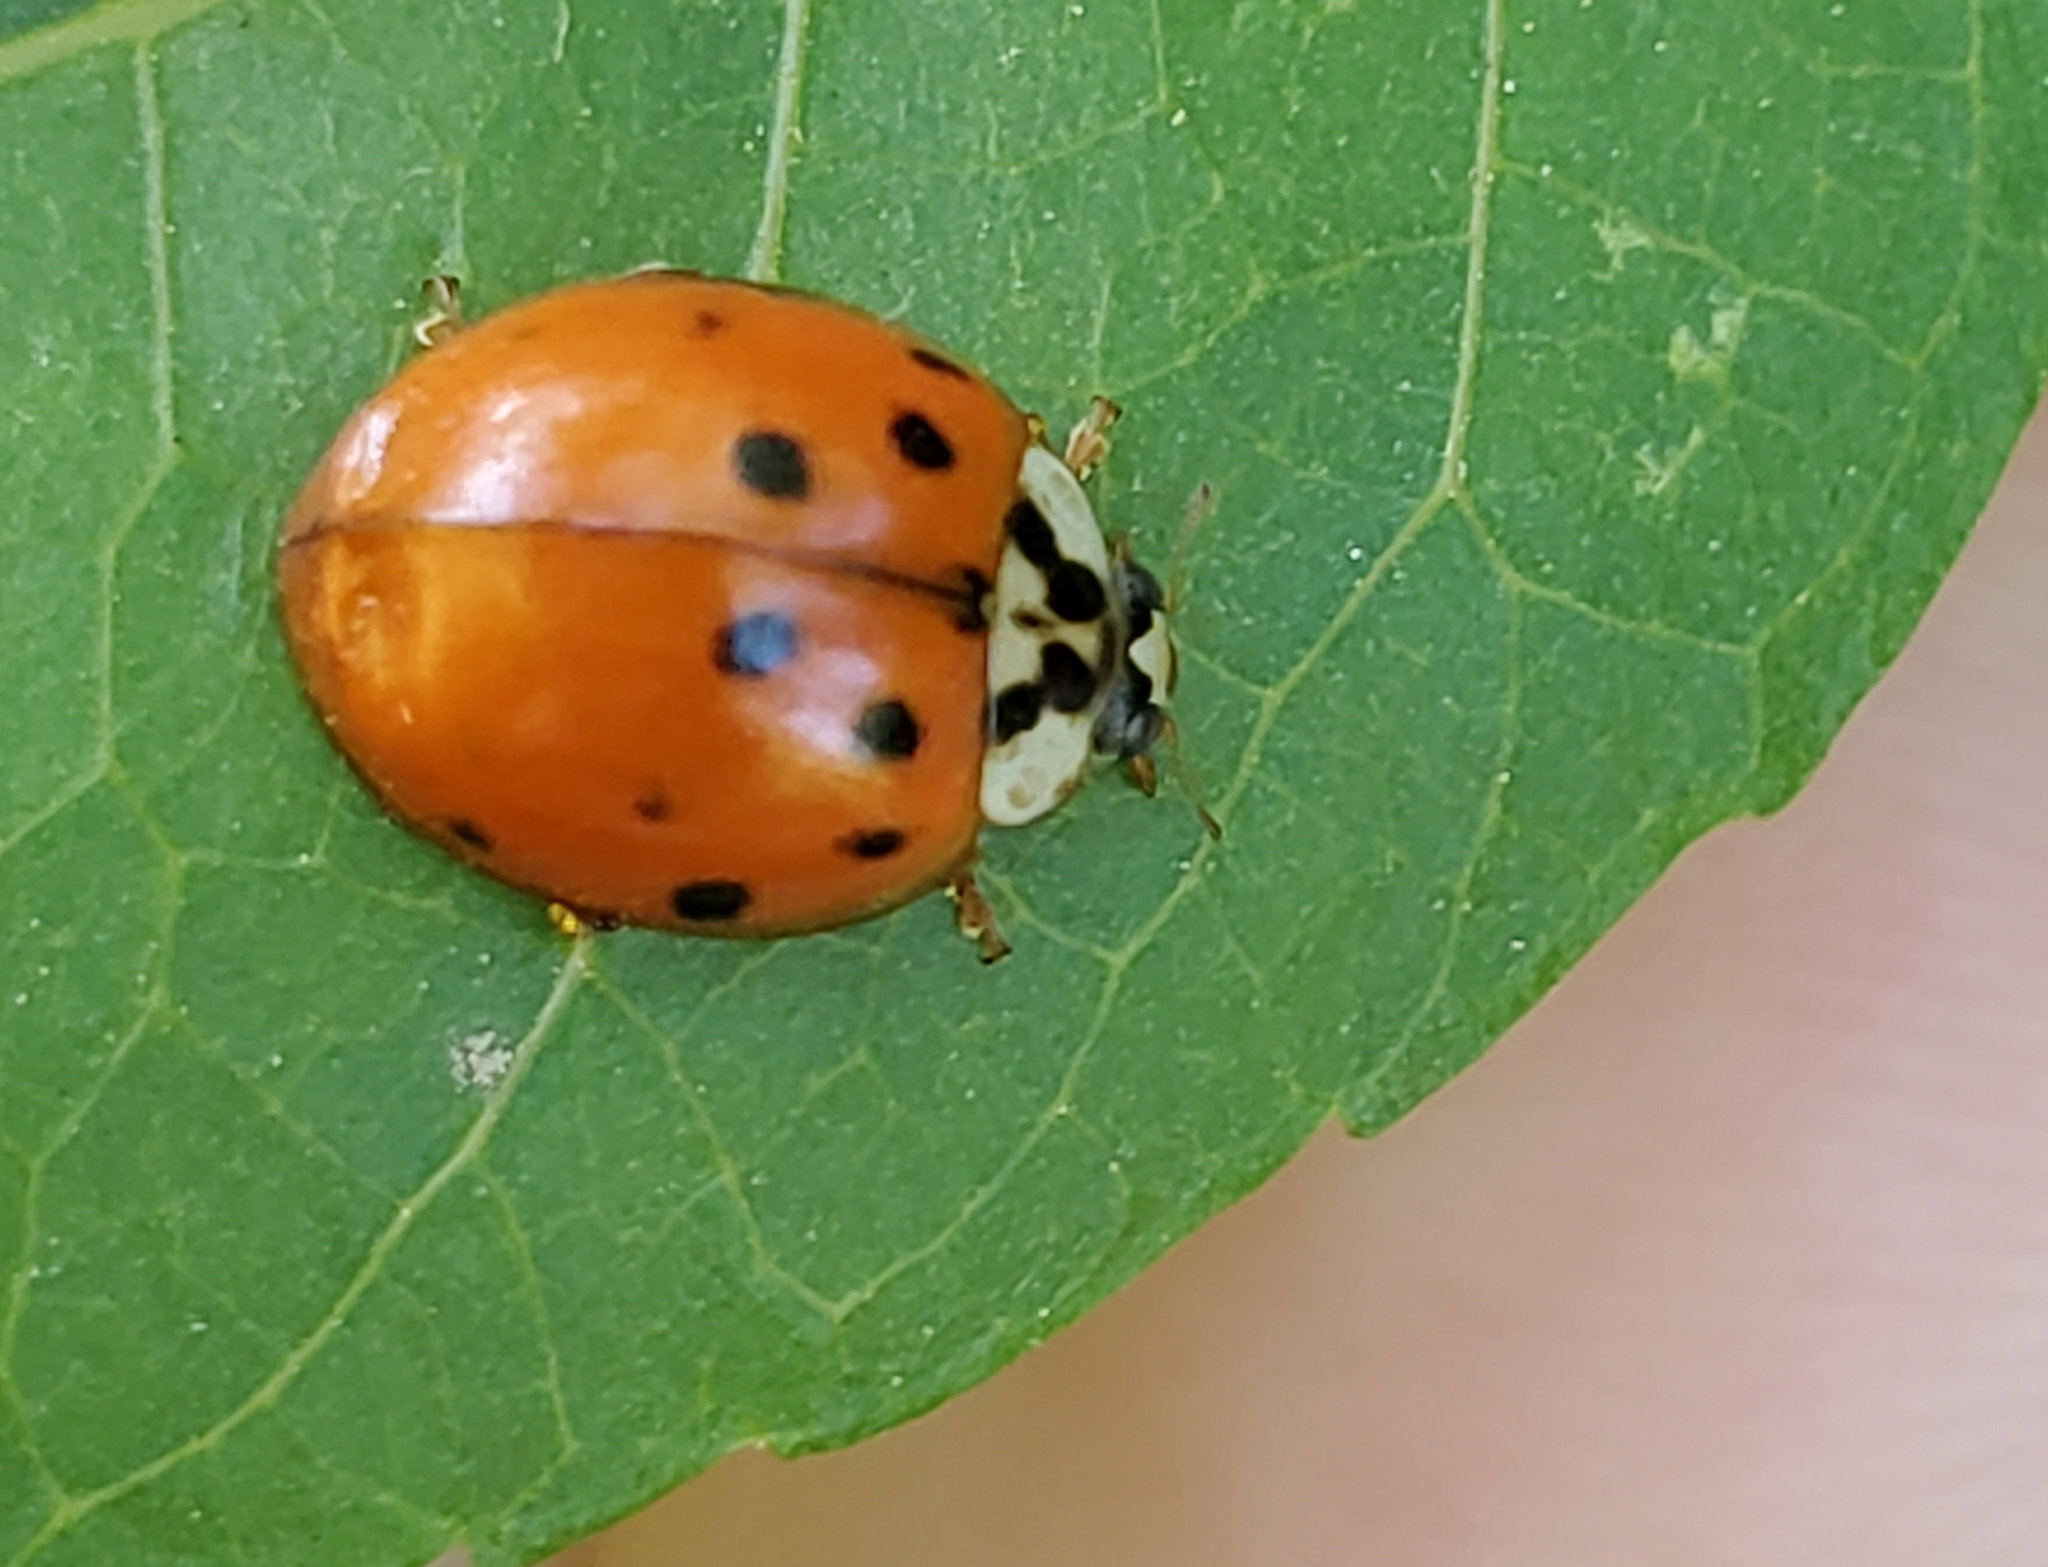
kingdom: Animalia
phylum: Arthropoda
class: Insecta
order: Coleoptera
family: Coccinellidae
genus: Harmonia
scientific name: Harmonia axyridis
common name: Harlequin ladybird
